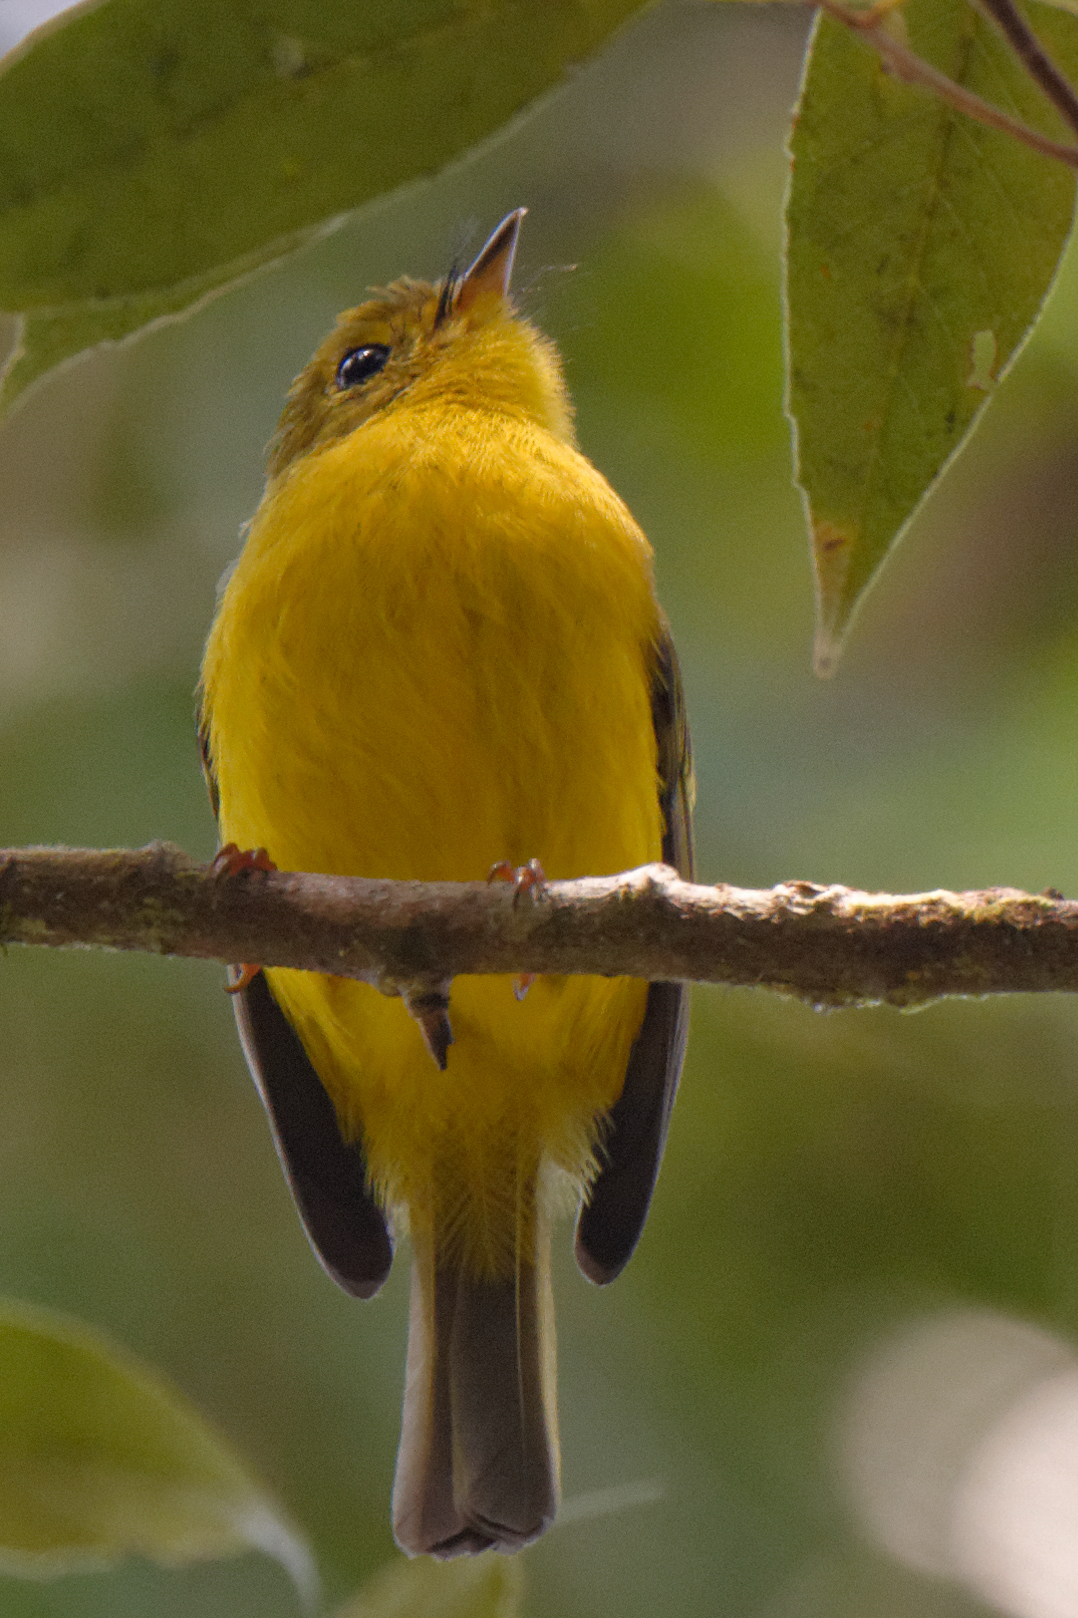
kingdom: Animalia
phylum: Chordata
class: Aves
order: Passeriformes
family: Stenostiridae
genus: Culicicapa
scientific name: Culicicapa helianthea
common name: Citrine canary-flycatcher
